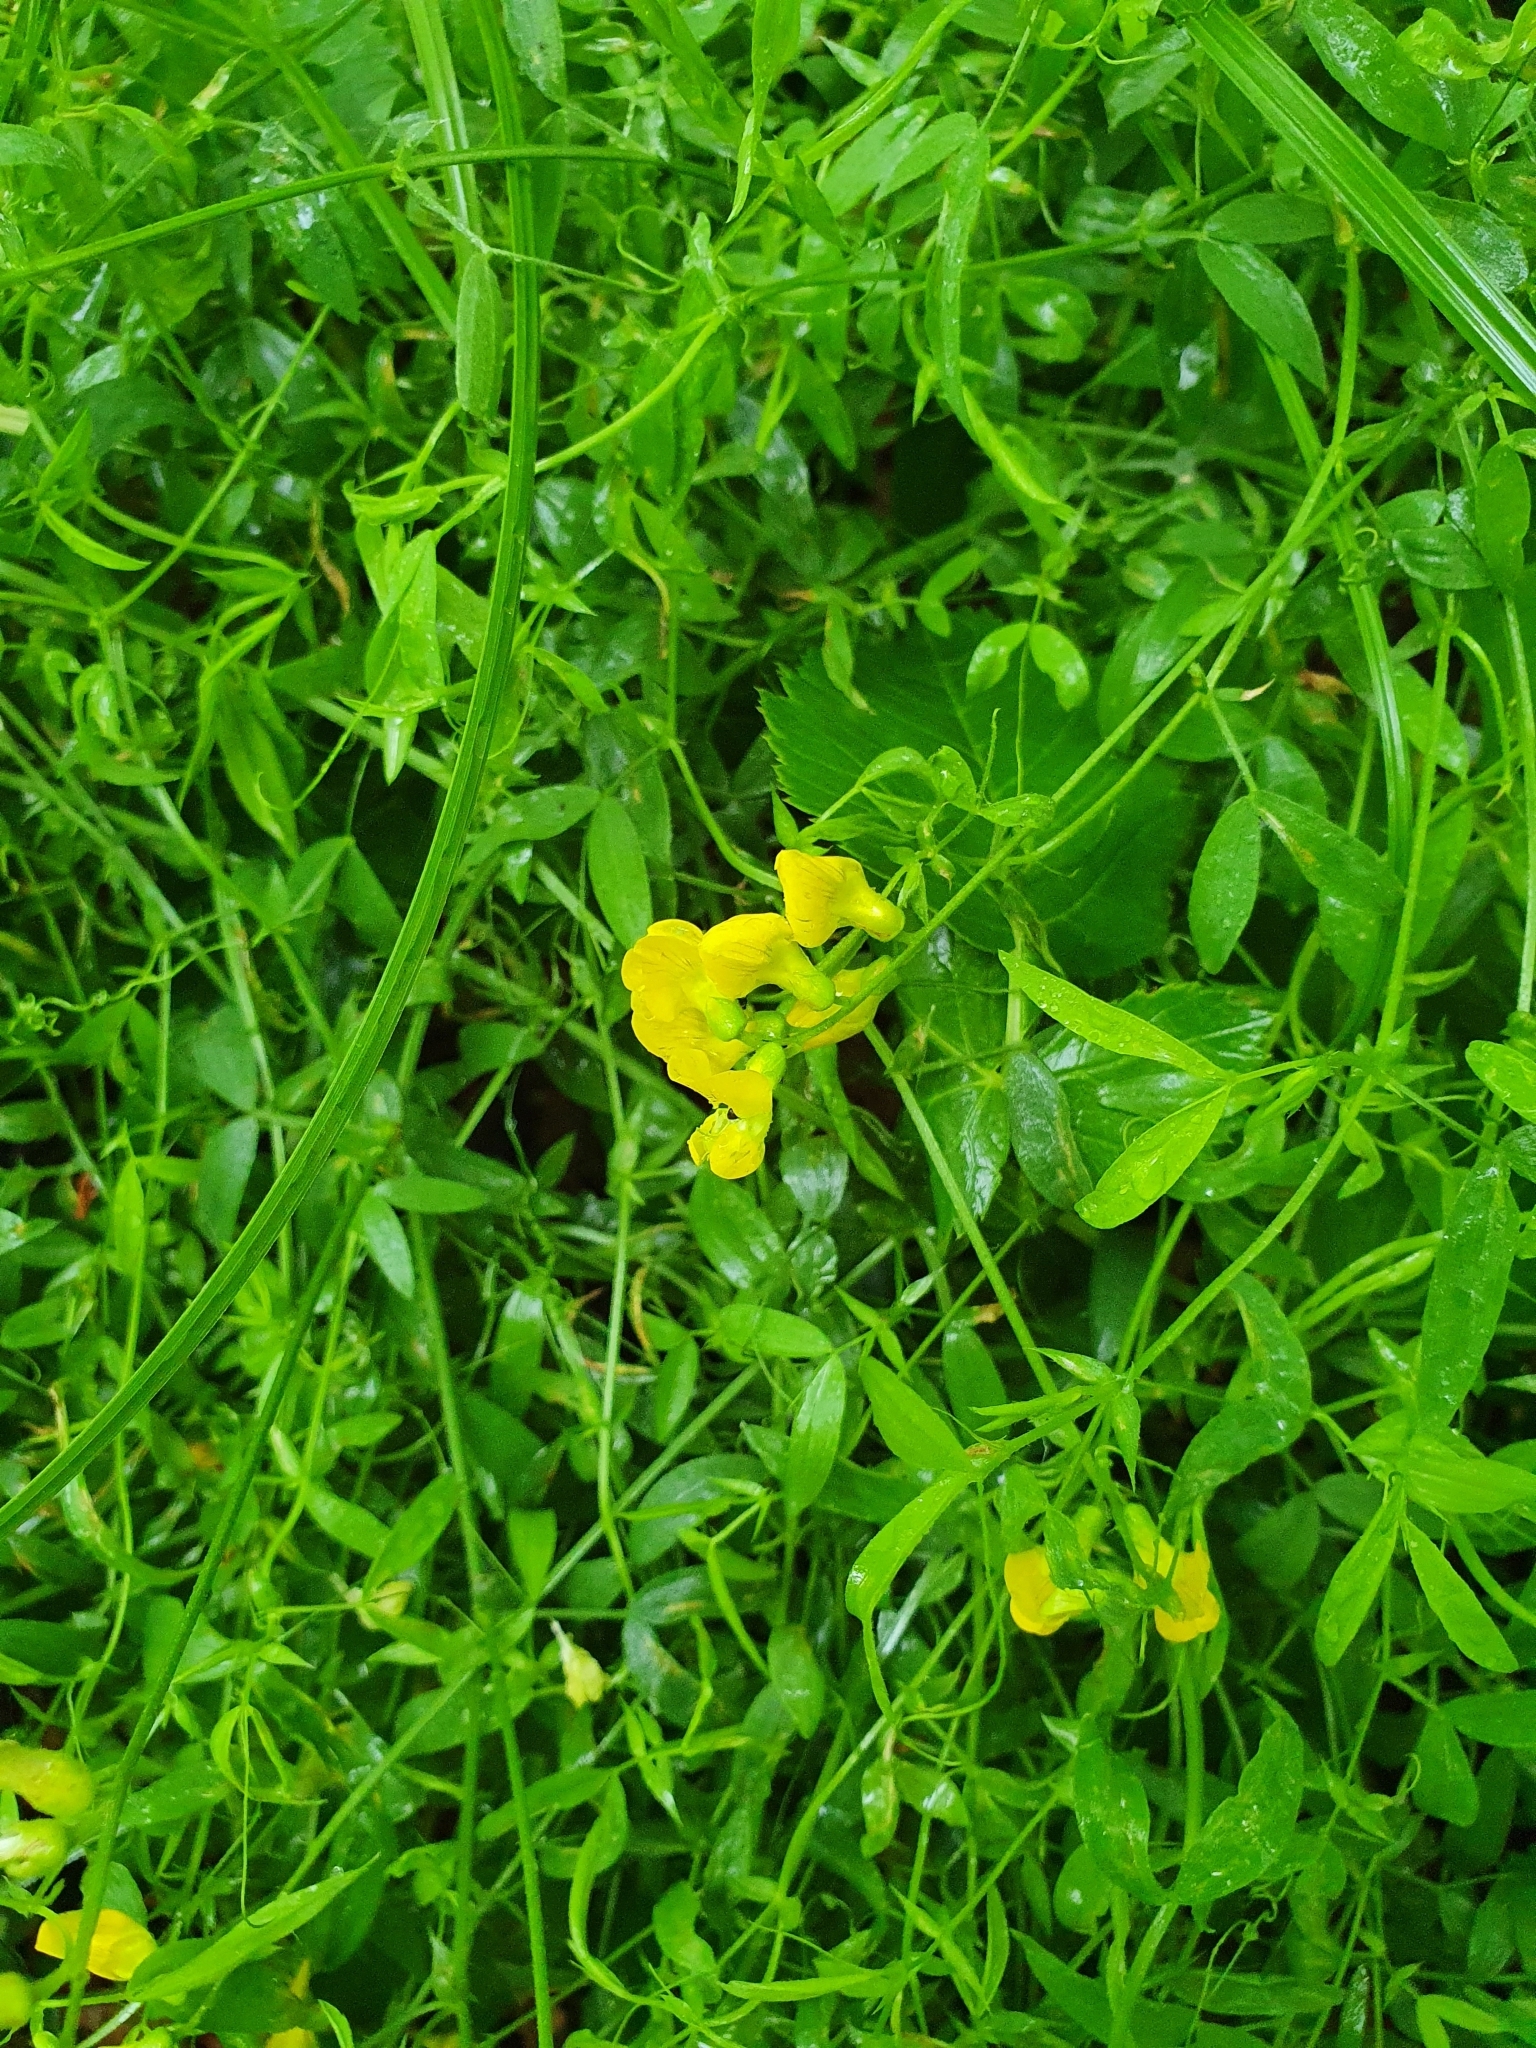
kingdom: Plantae
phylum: Tracheophyta
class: Magnoliopsida
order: Fabales
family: Fabaceae
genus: Lathyrus
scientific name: Lathyrus pratensis
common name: Meadow vetchling
